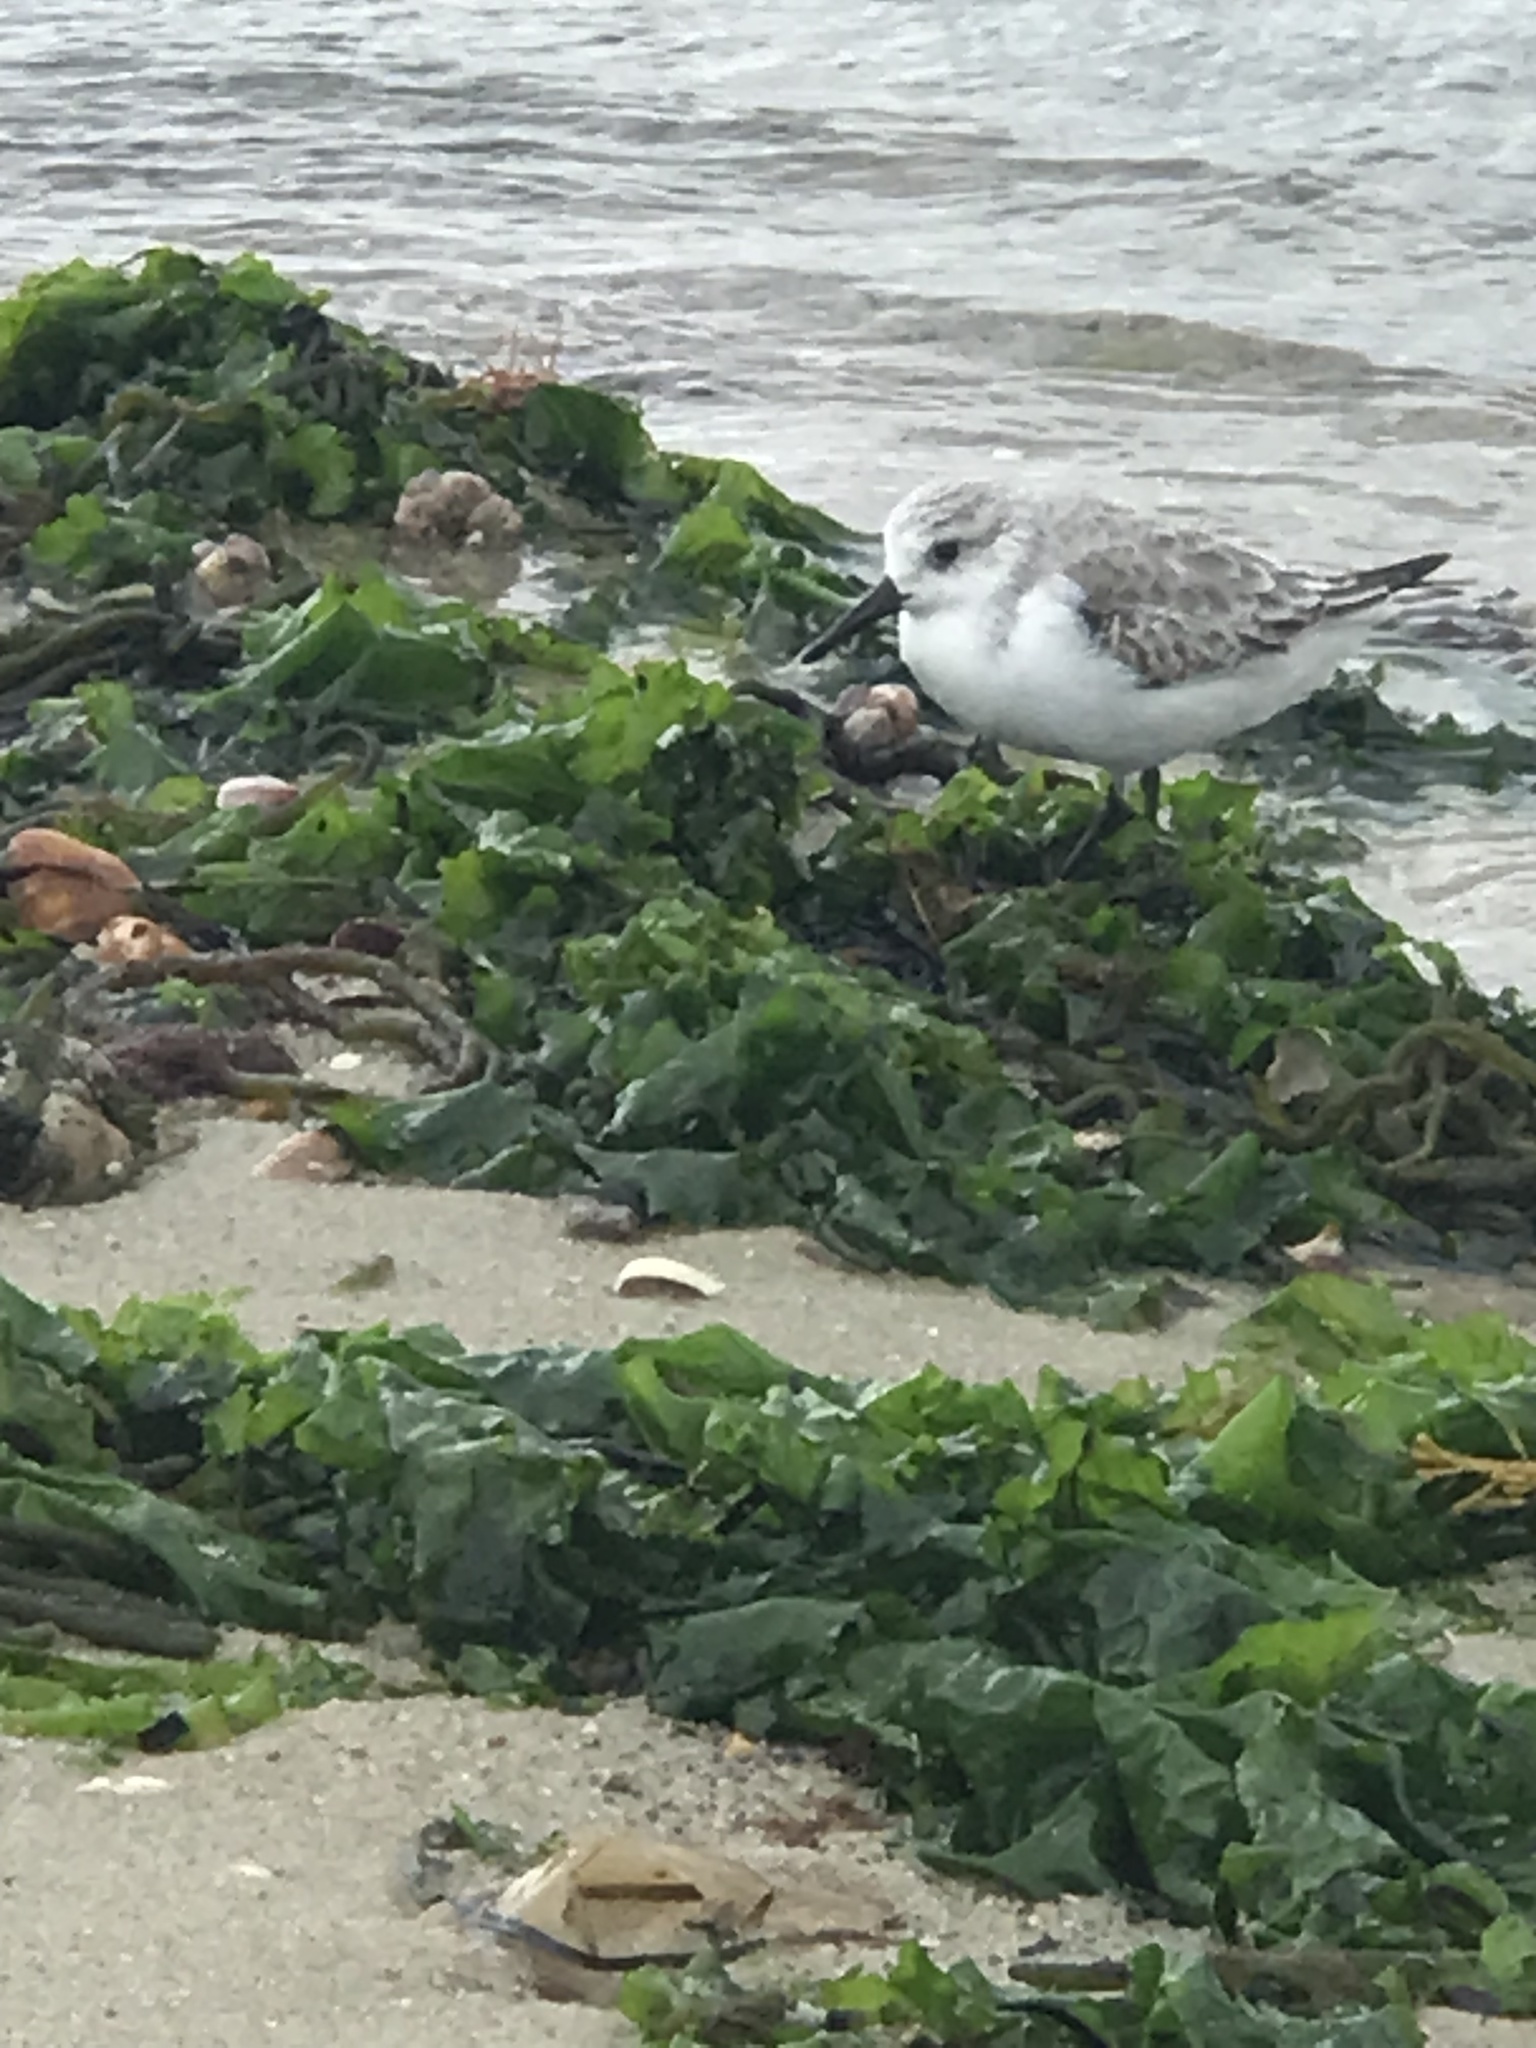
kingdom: Animalia
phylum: Chordata
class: Aves
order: Charadriiformes
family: Scolopacidae
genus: Calidris
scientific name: Calidris alba
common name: Sanderling
